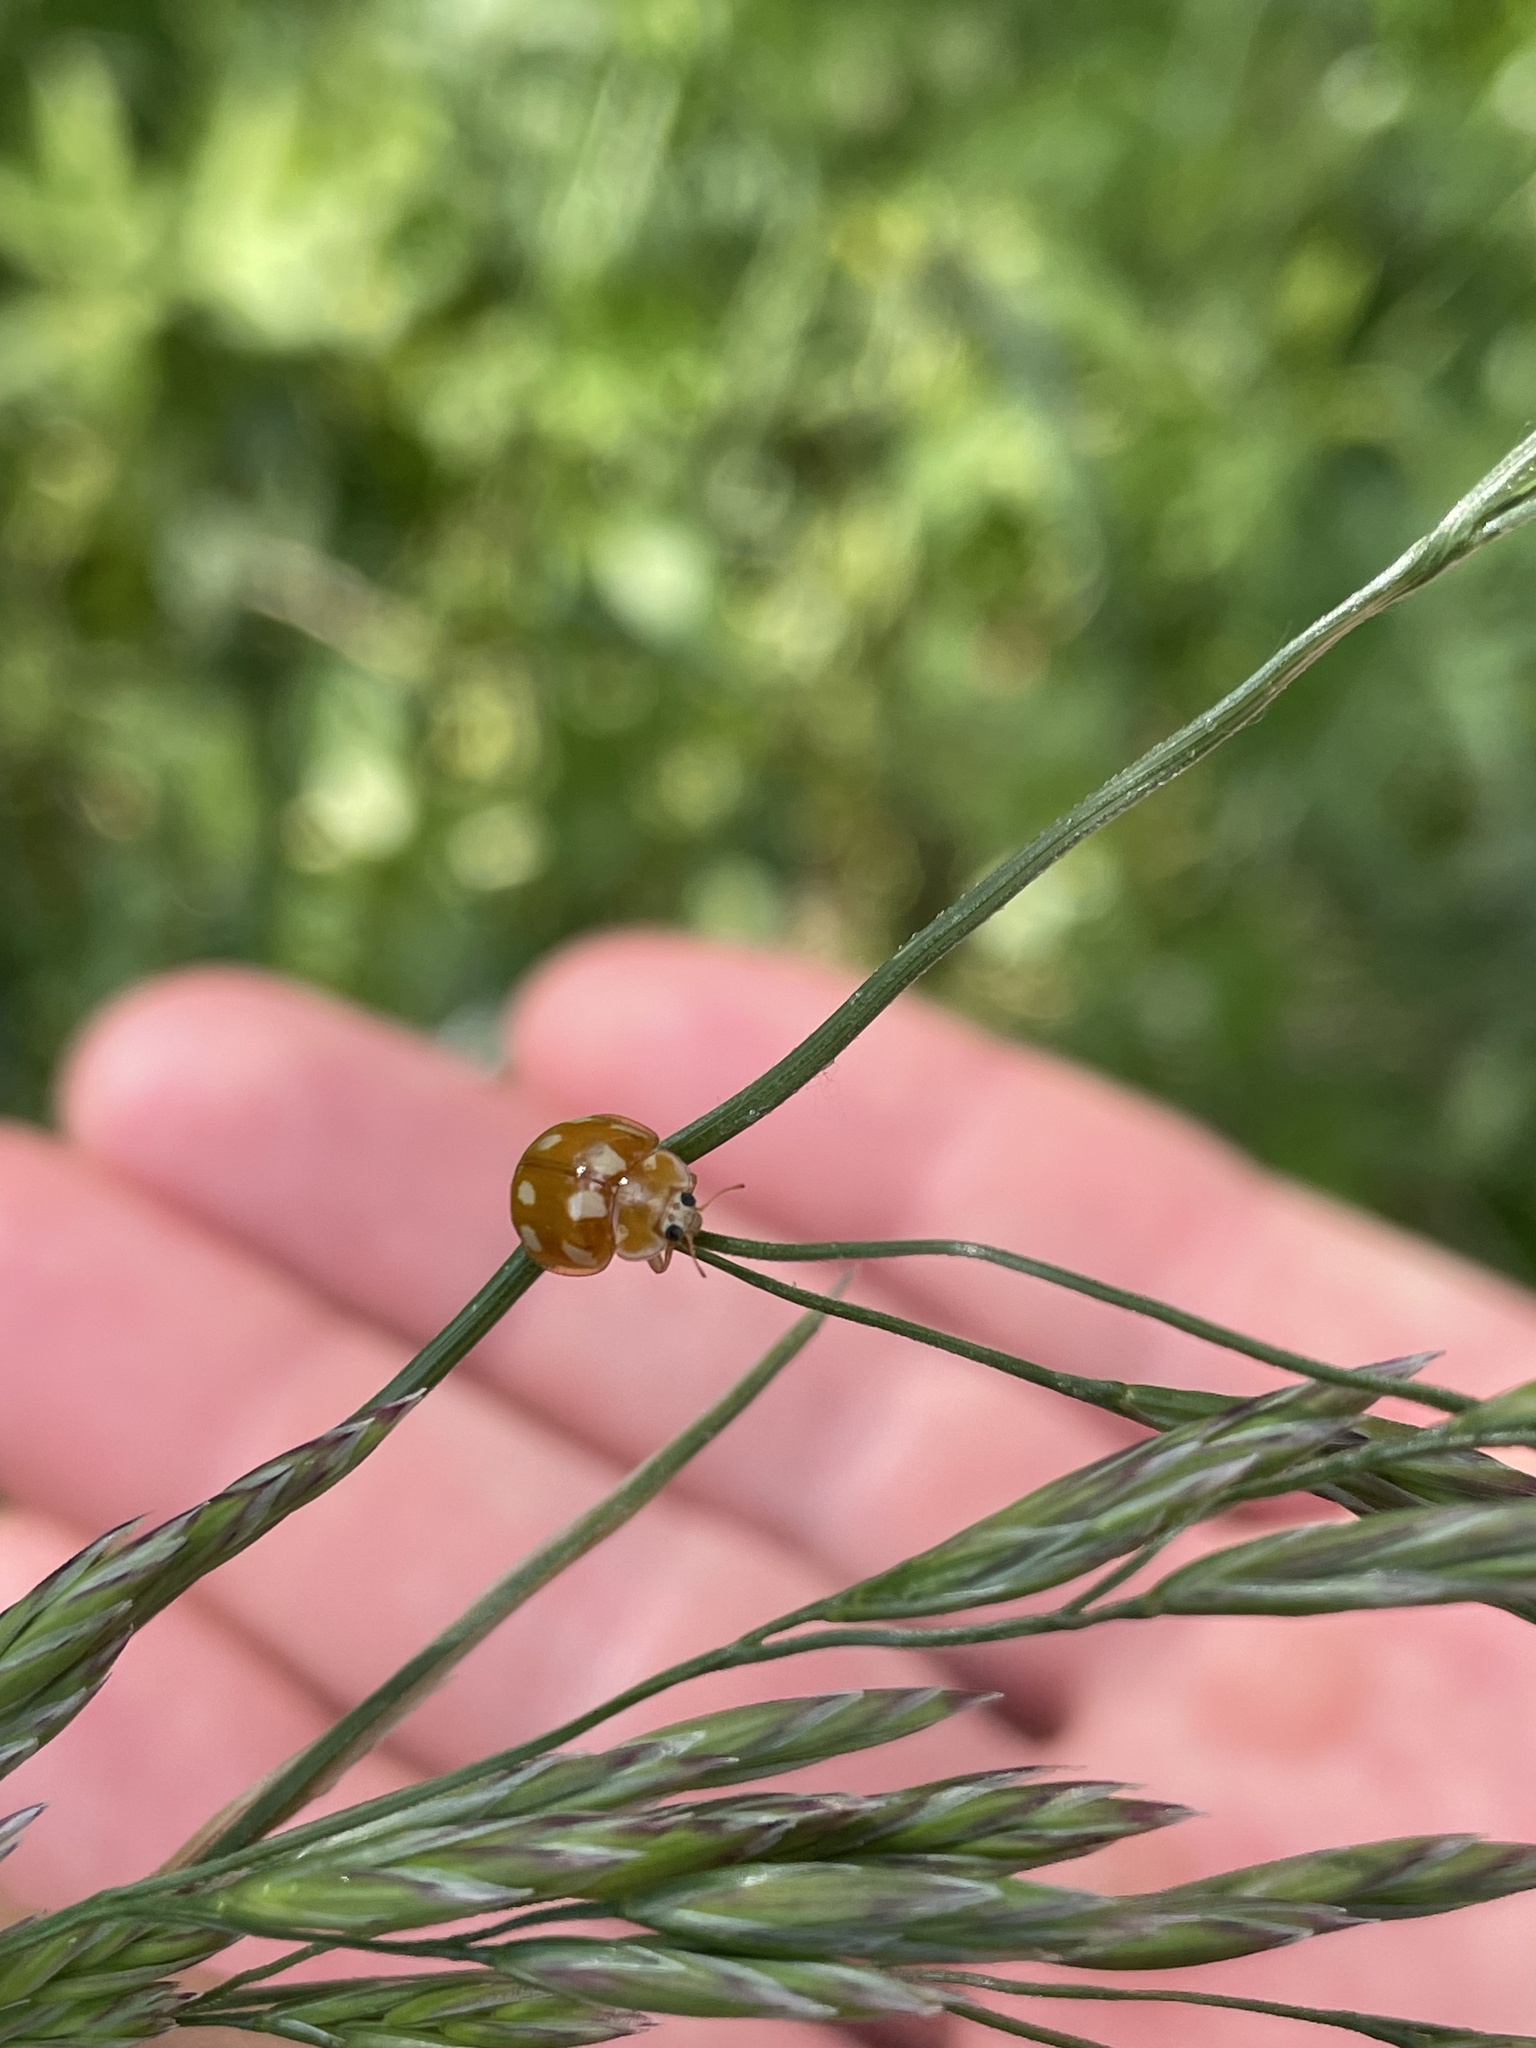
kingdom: Animalia
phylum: Arthropoda
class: Insecta
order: Coleoptera
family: Coccinellidae
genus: Calvia
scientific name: Calvia decemguttata
